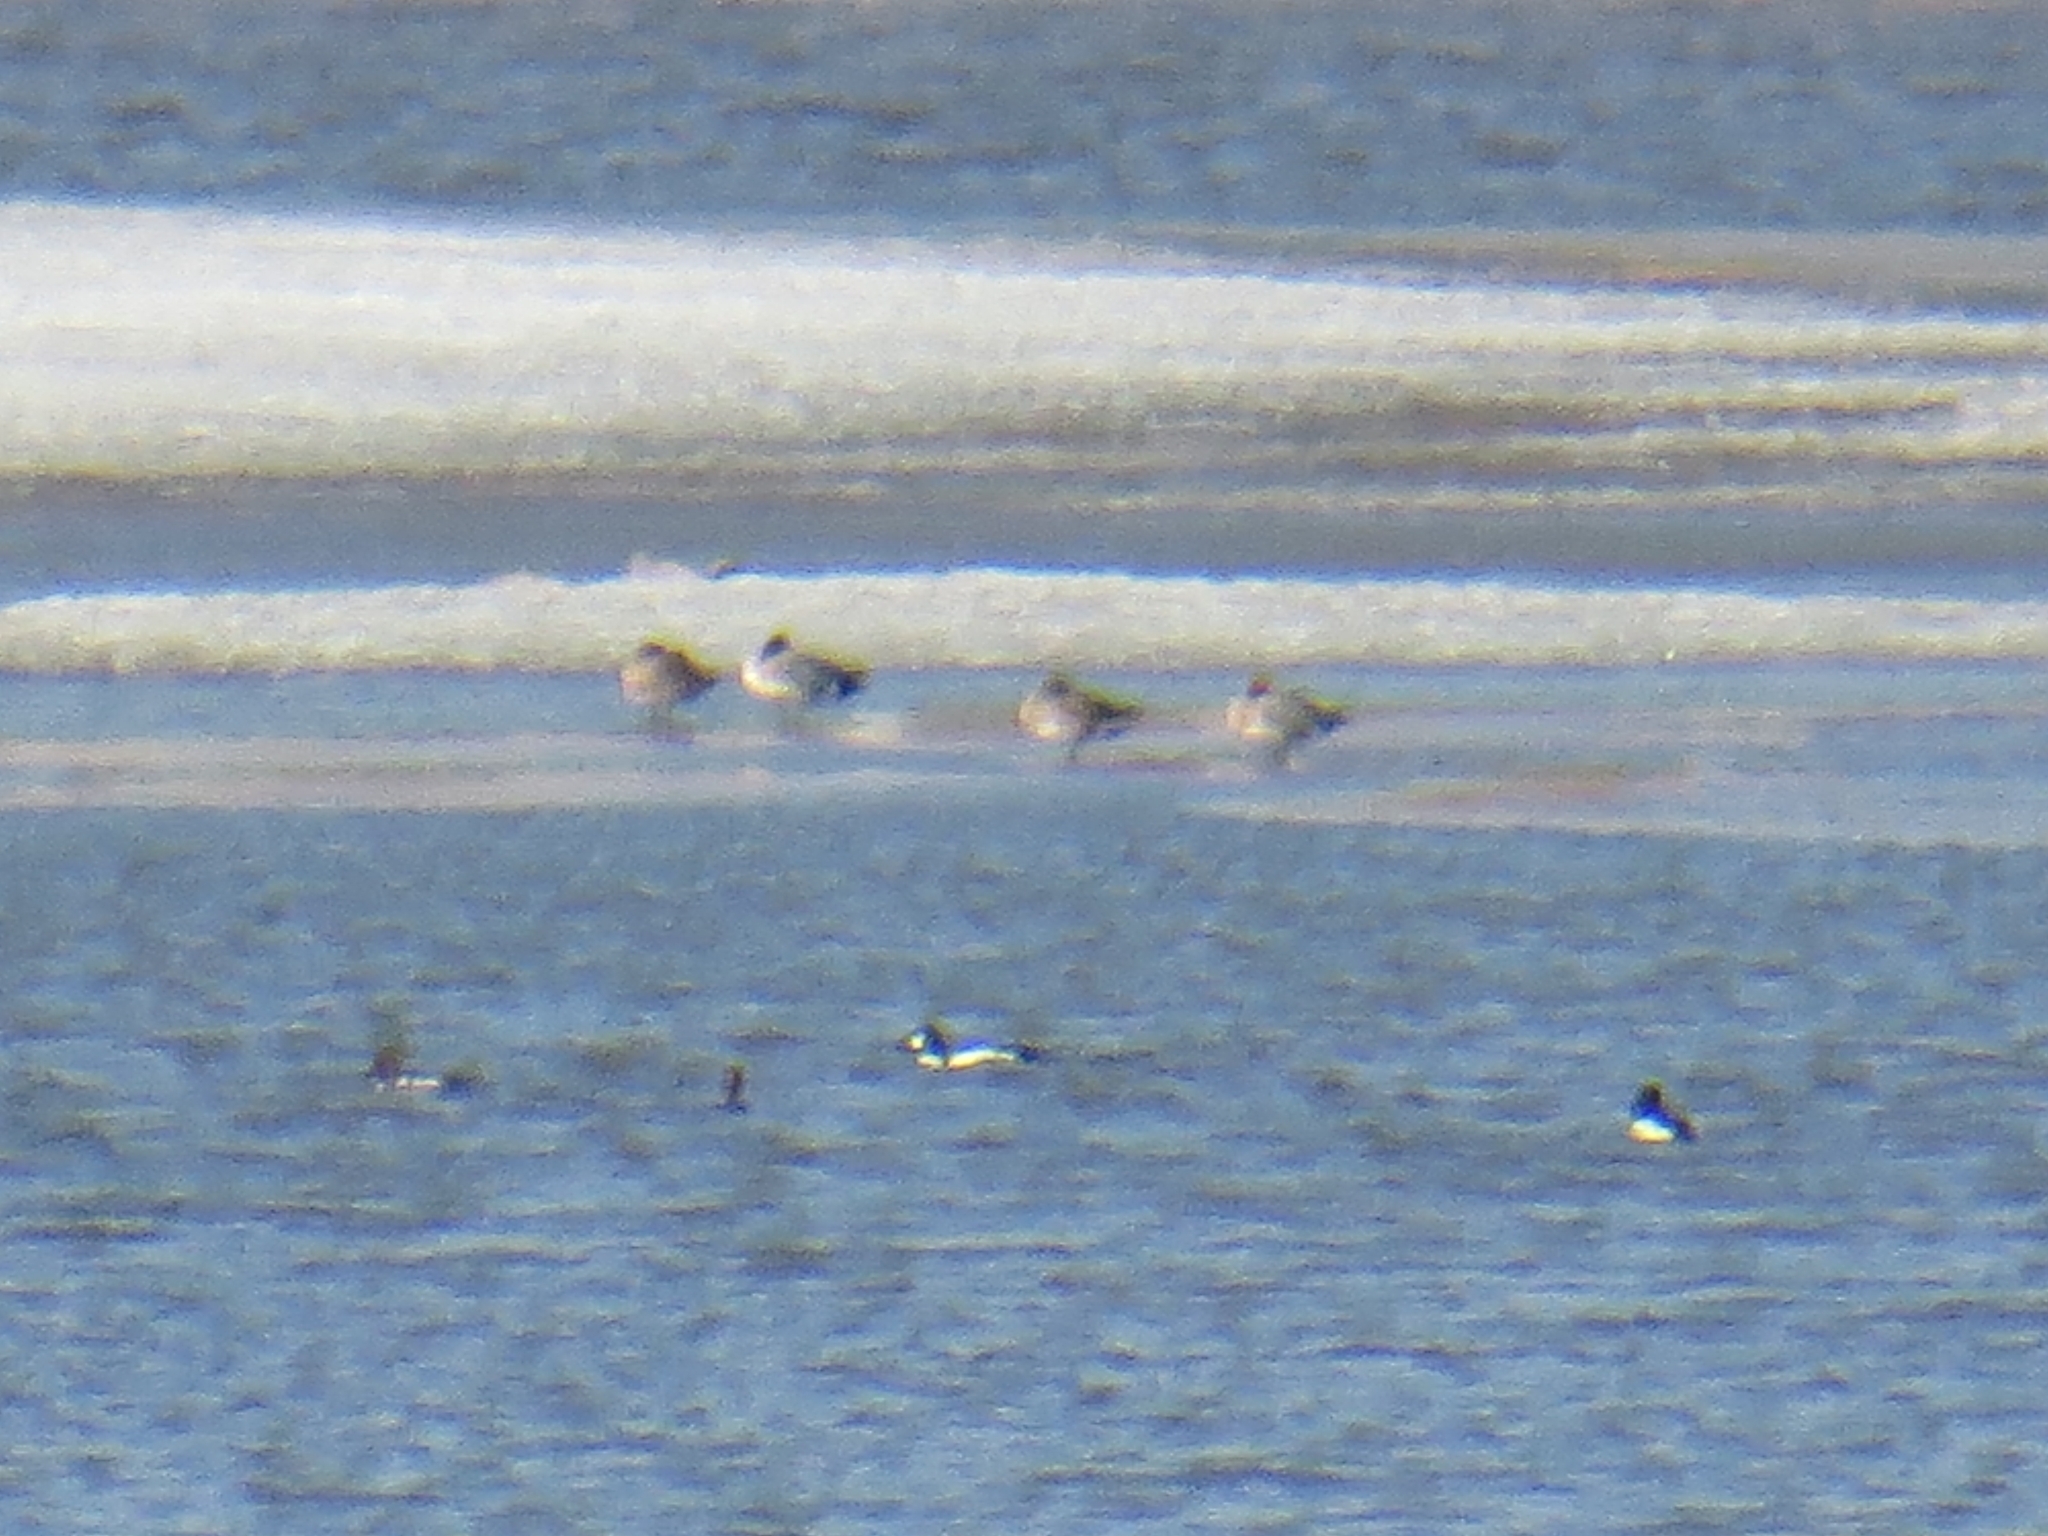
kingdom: Animalia
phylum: Chordata
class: Aves
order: Anseriformes
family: Anatidae
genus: Bucephala
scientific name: Bucephala clangula
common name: Common goldeneye
